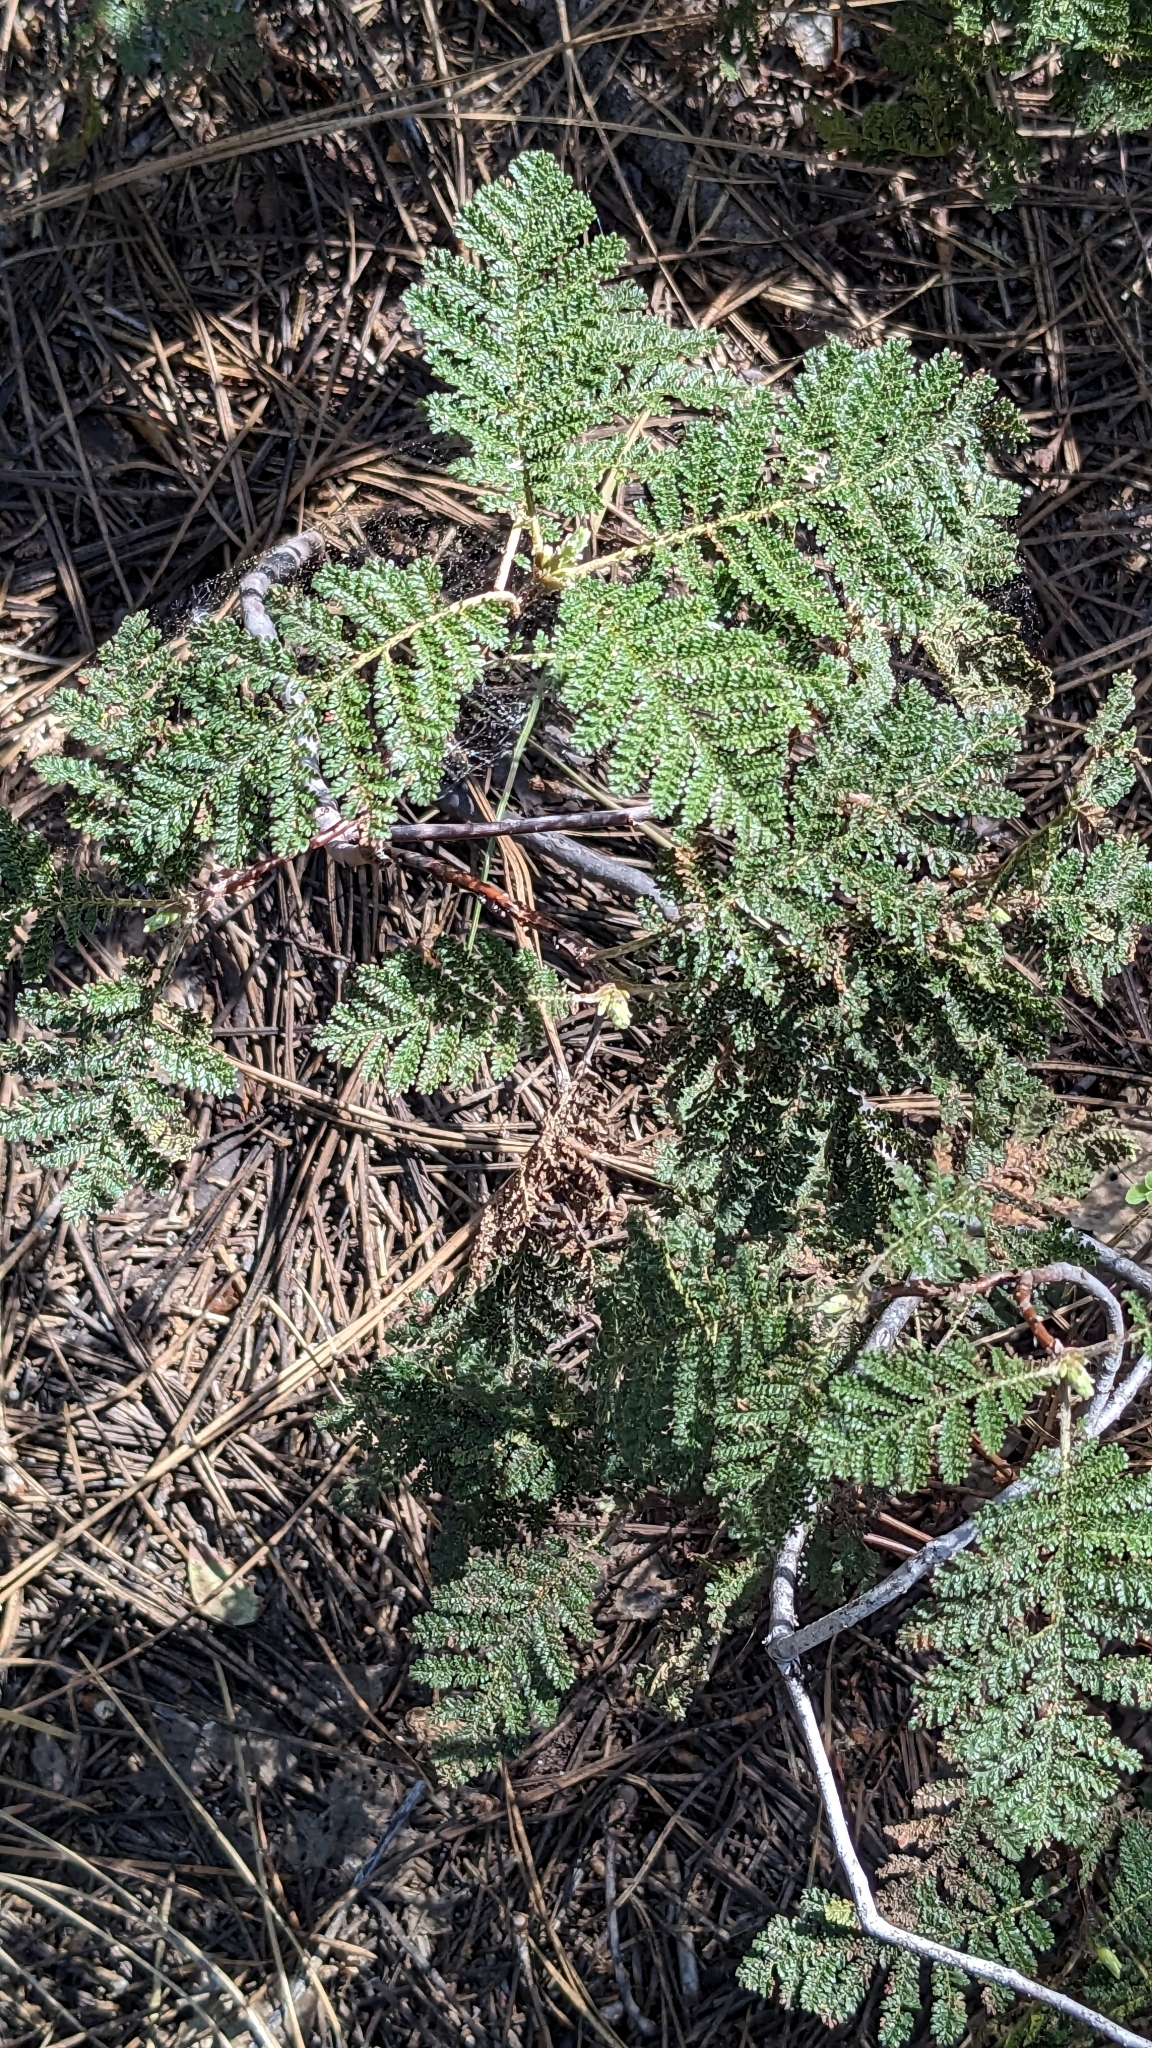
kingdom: Plantae
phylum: Tracheophyta
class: Magnoliopsida
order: Rosales
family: Rosaceae
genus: Chamaebatia
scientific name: Chamaebatia foliolosa
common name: Mountain misery
